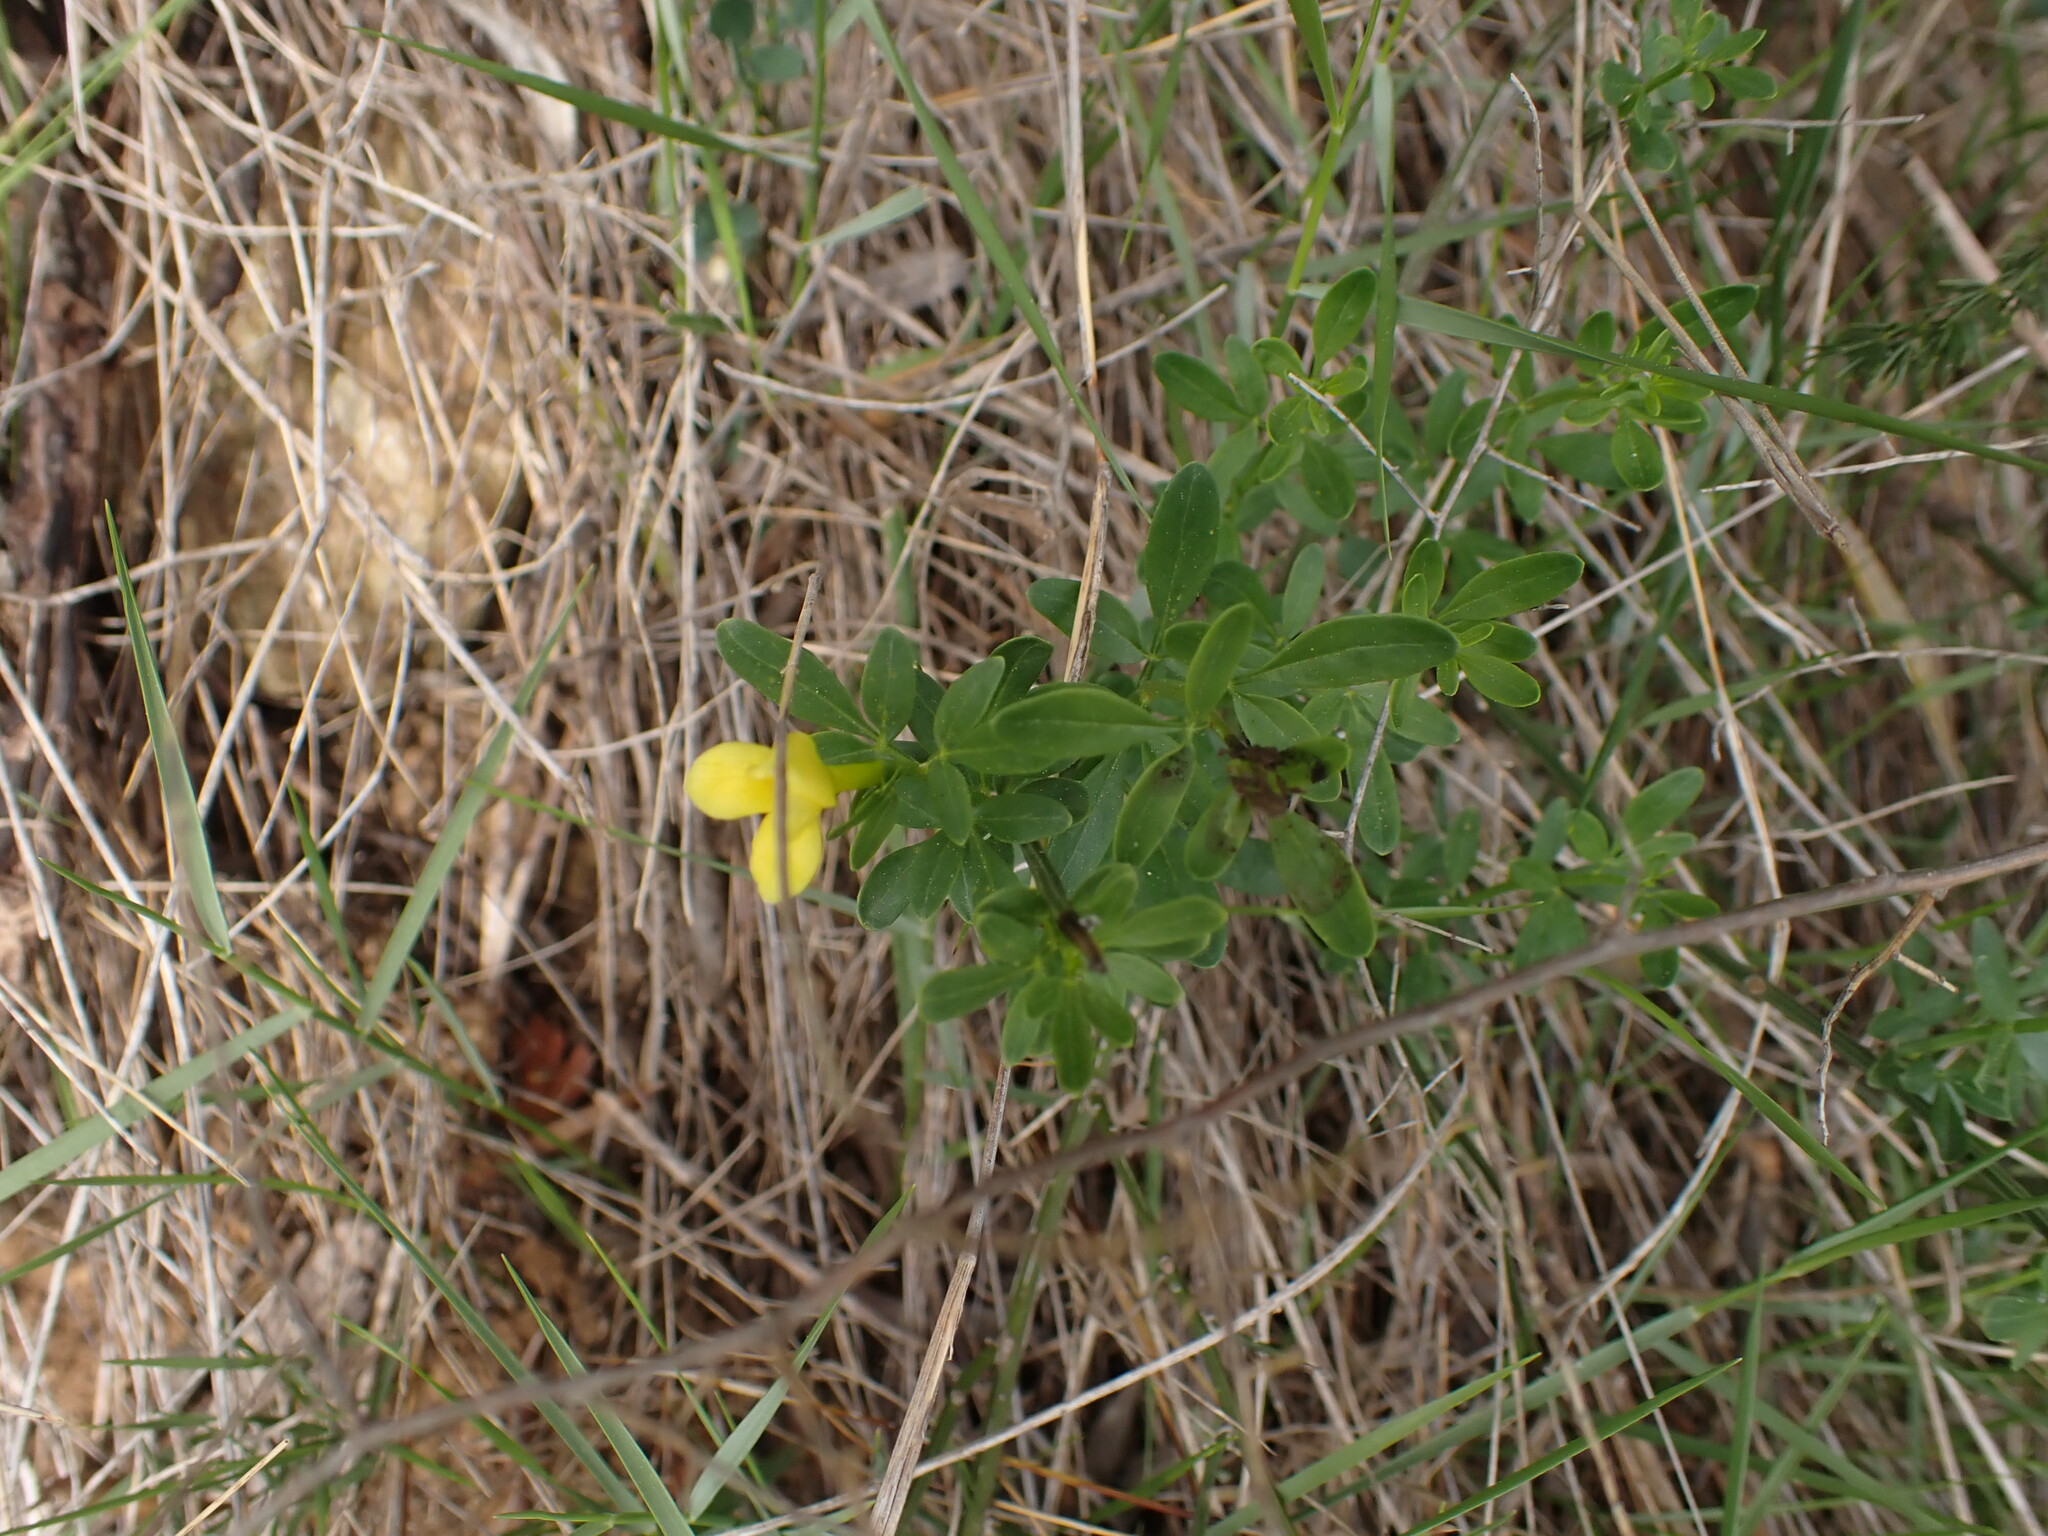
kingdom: Plantae
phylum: Tracheophyta
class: Magnoliopsida
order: Lamiales
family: Oleaceae
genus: Chrysojasminum
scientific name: Chrysojasminum fruticans
